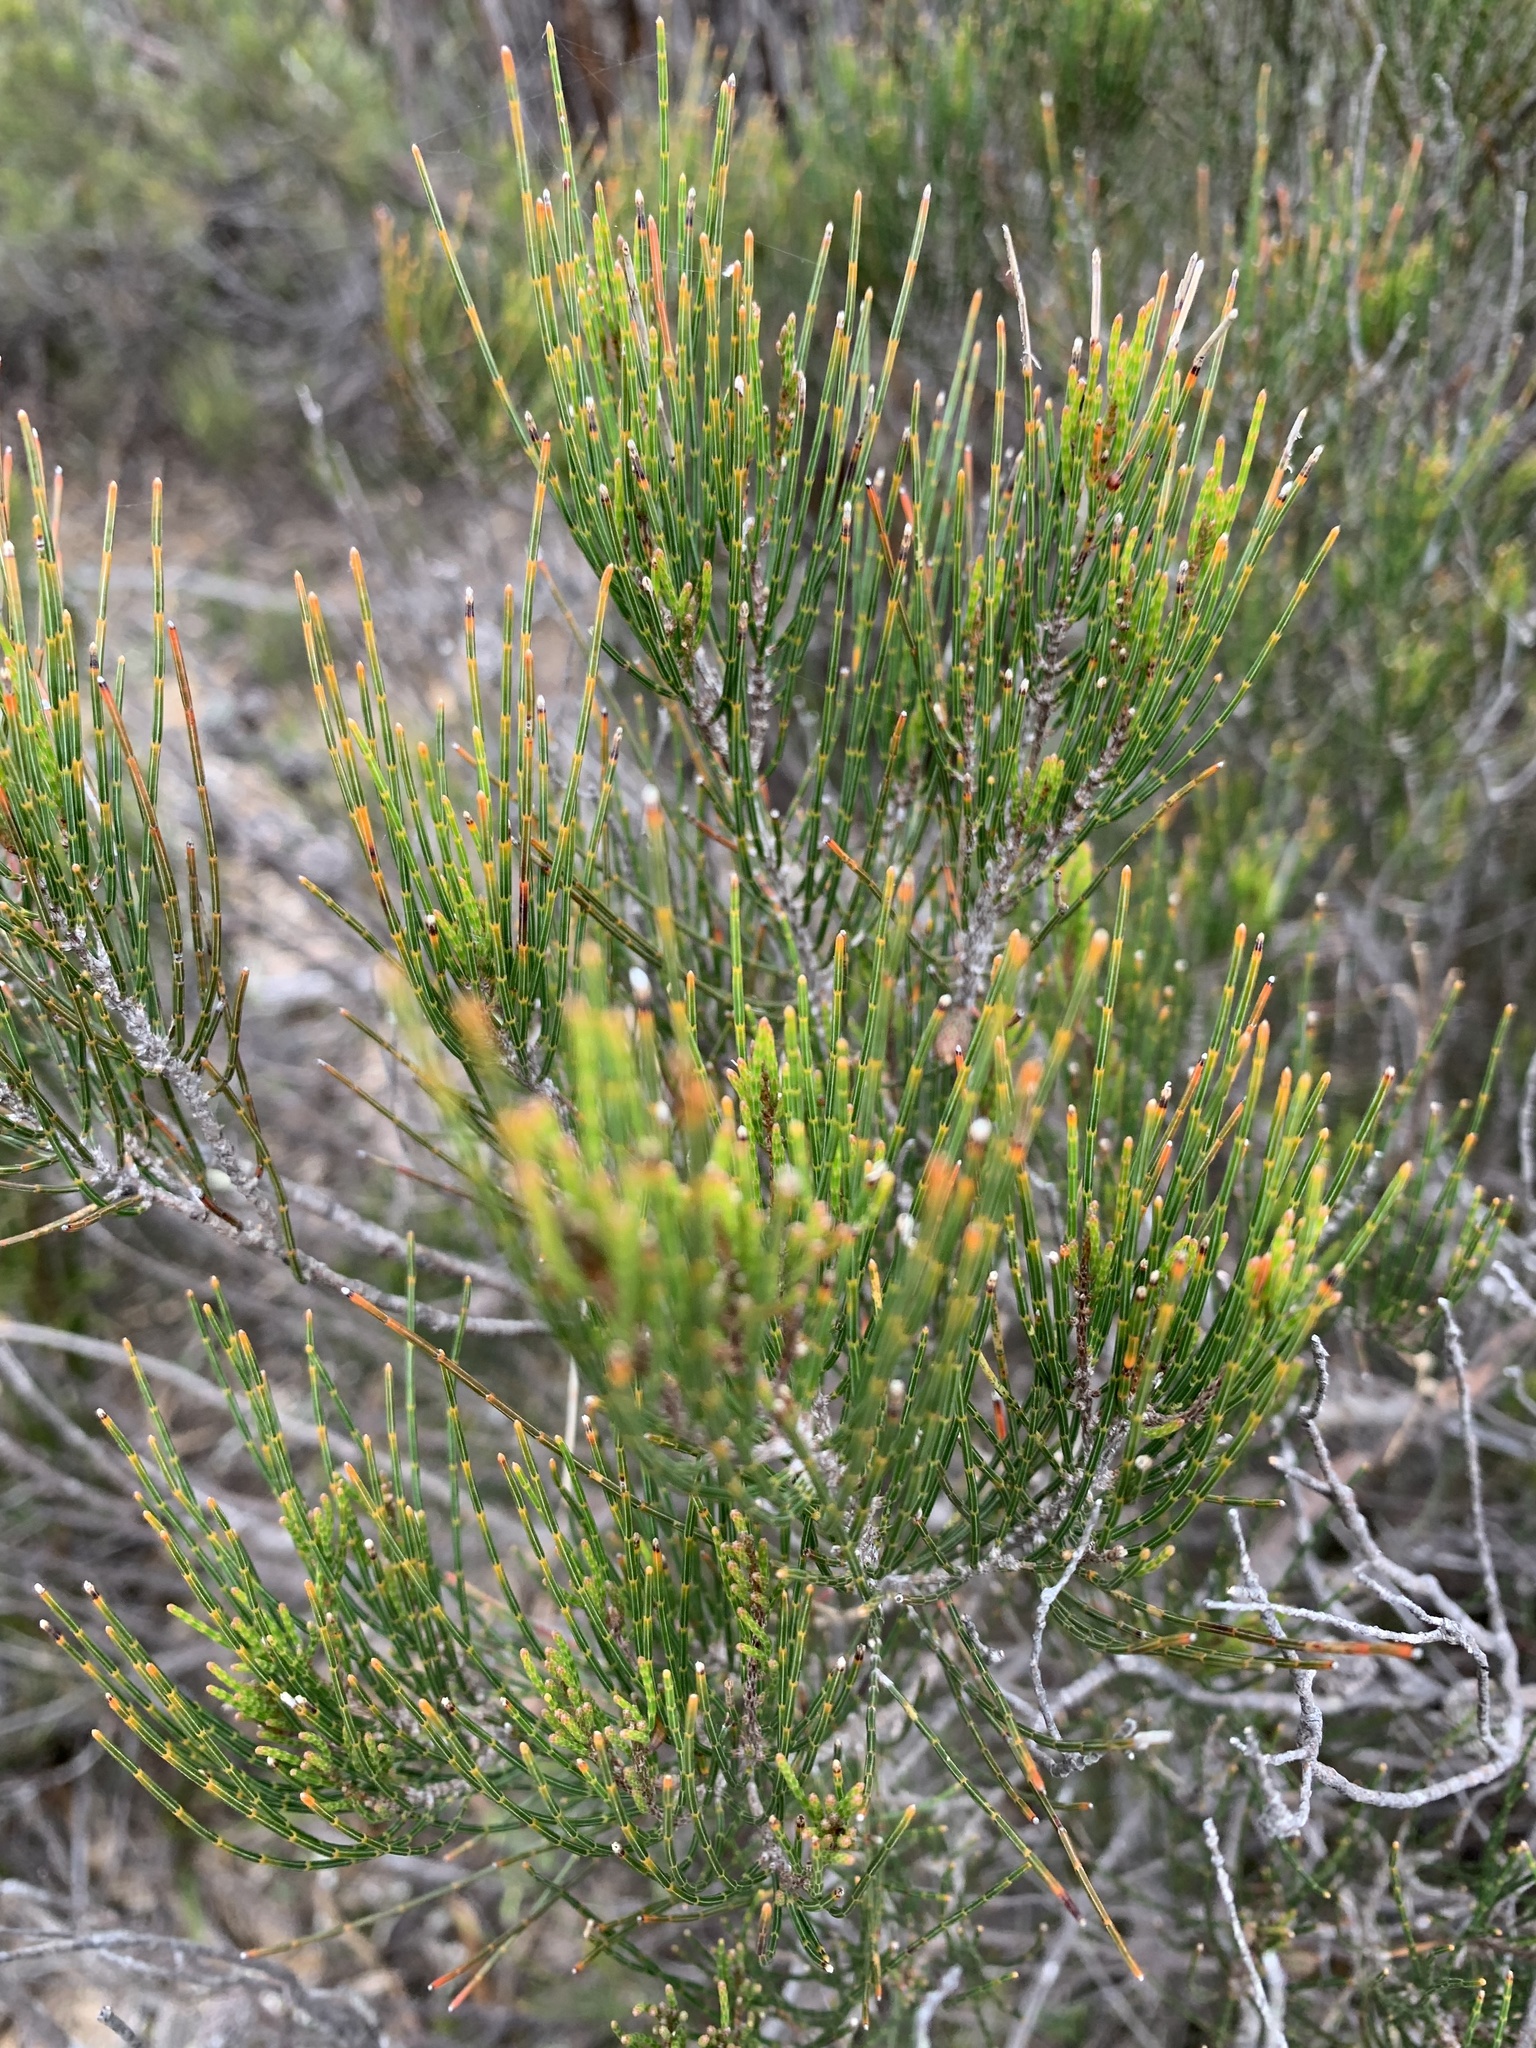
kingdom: Plantae
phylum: Tracheophyta
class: Magnoliopsida
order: Fagales
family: Casuarinaceae
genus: Allocasuarina
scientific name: Allocasuarina nana
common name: Stunted she-oak
